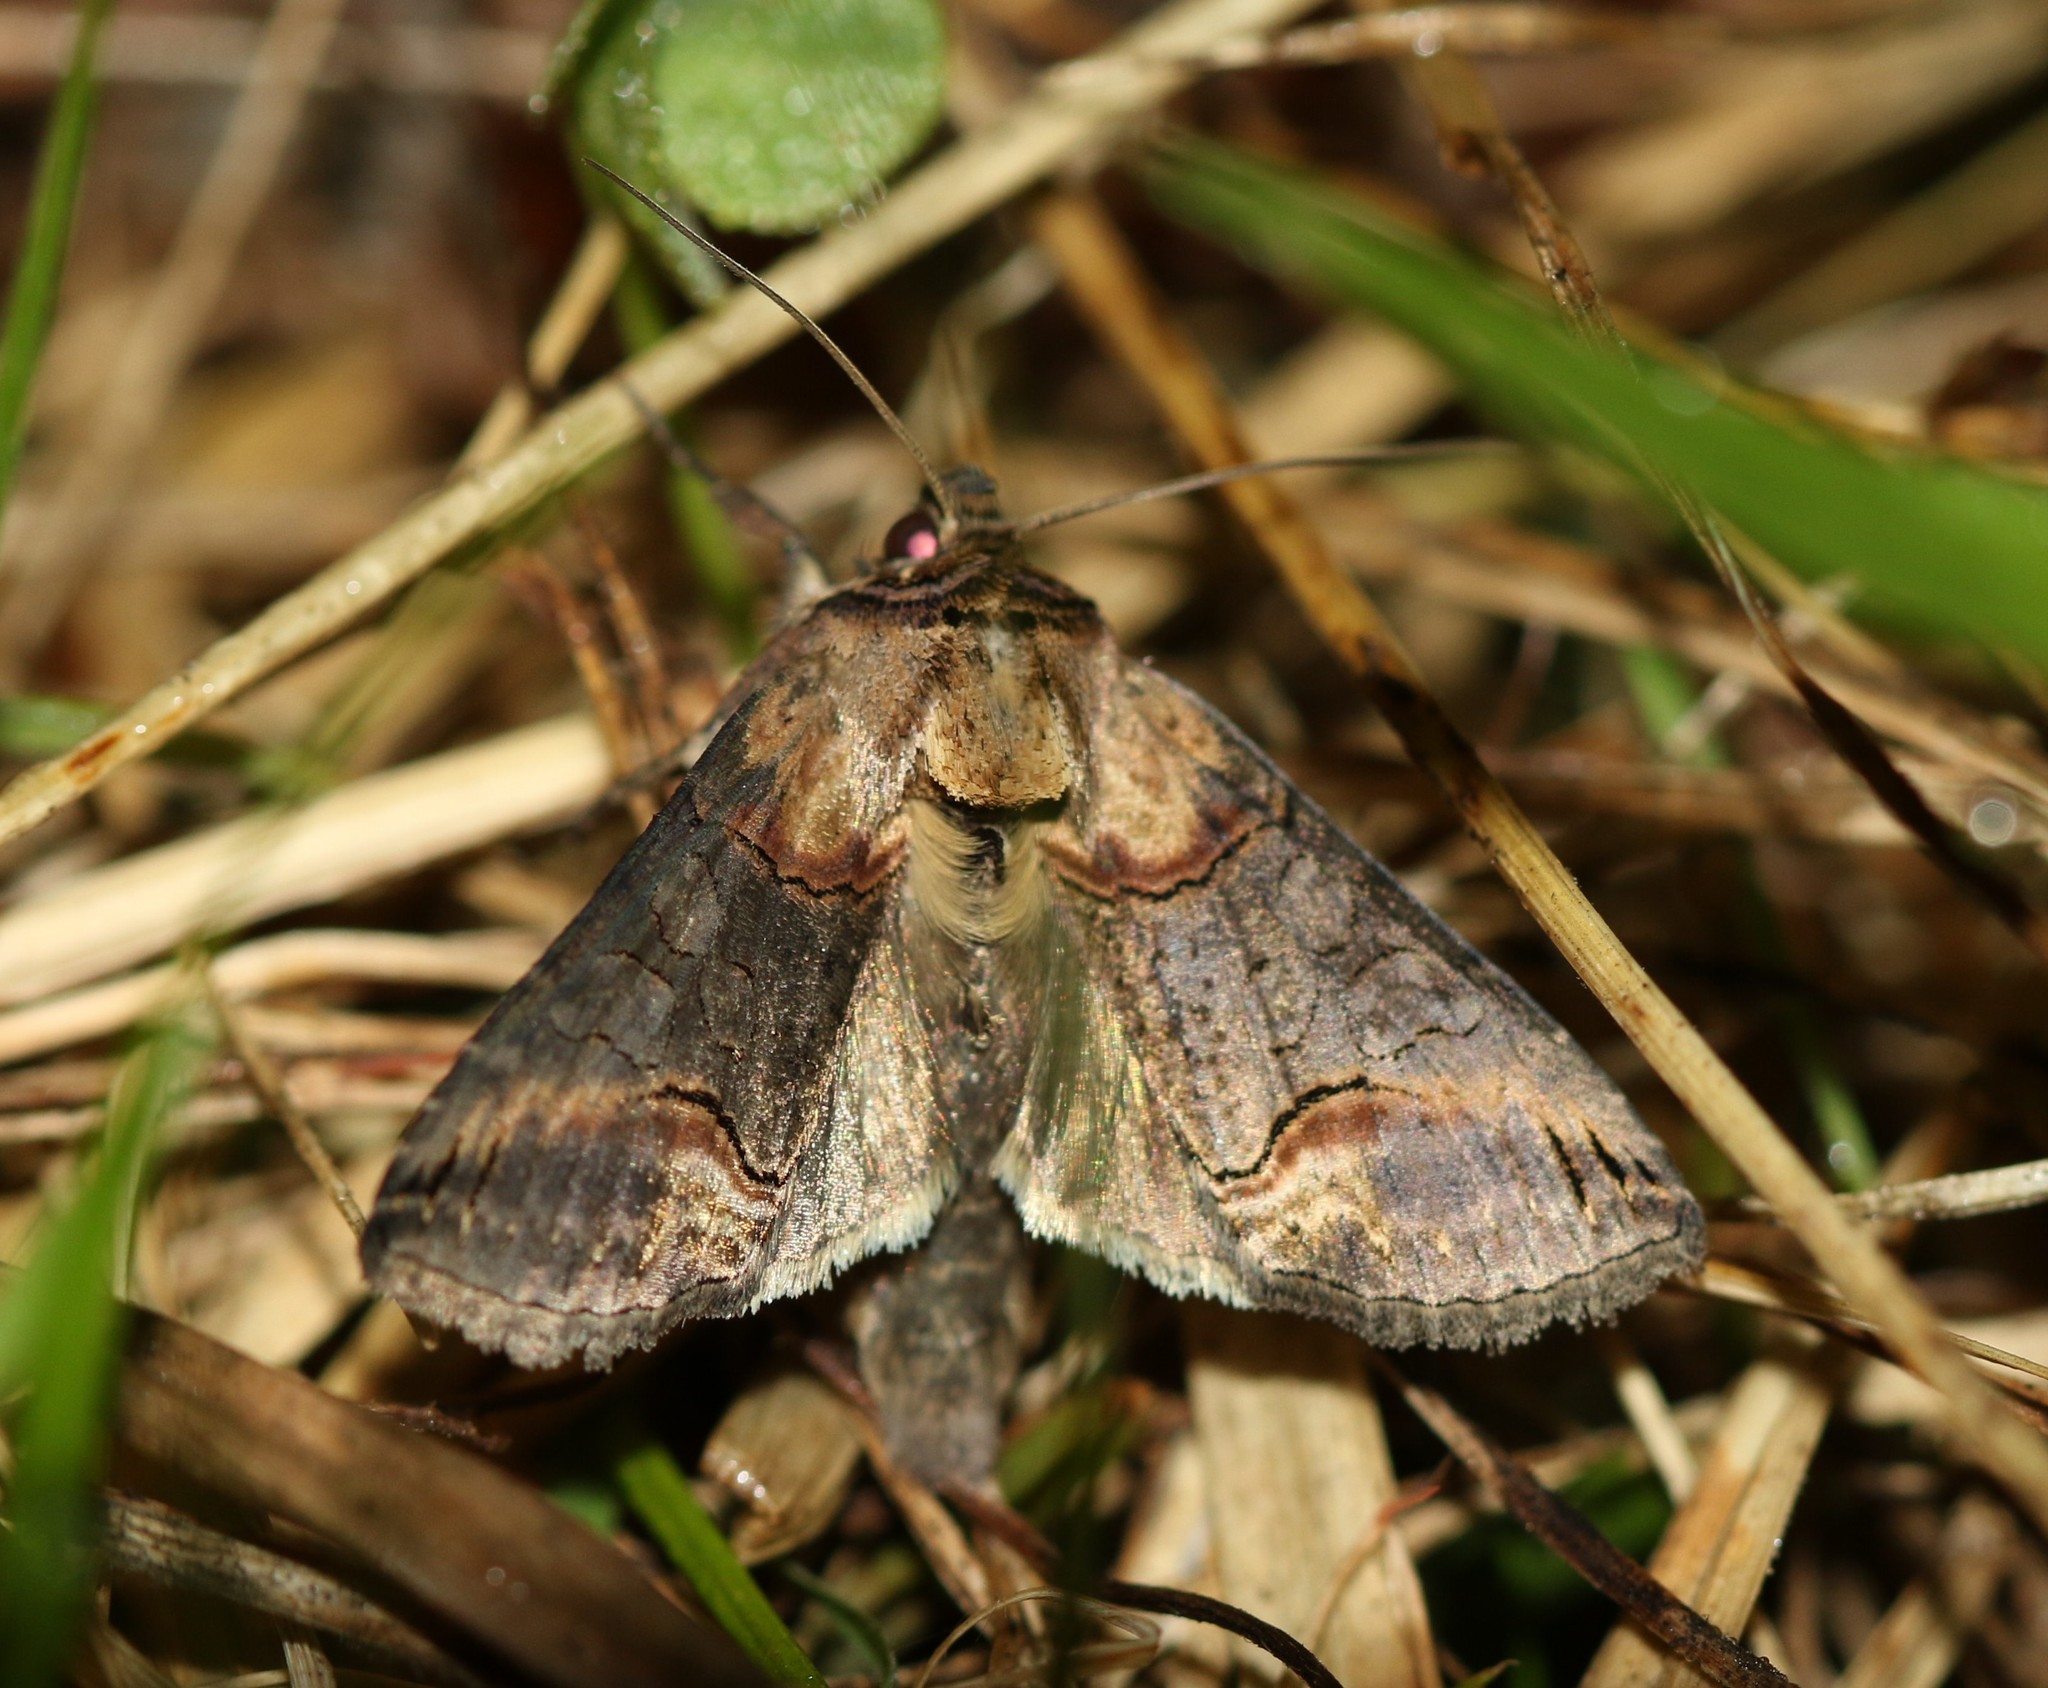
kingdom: Animalia
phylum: Arthropoda
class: Insecta
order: Lepidoptera
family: Noctuidae
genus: Abrostola
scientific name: Abrostola triplasia
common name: Dark spectacle
